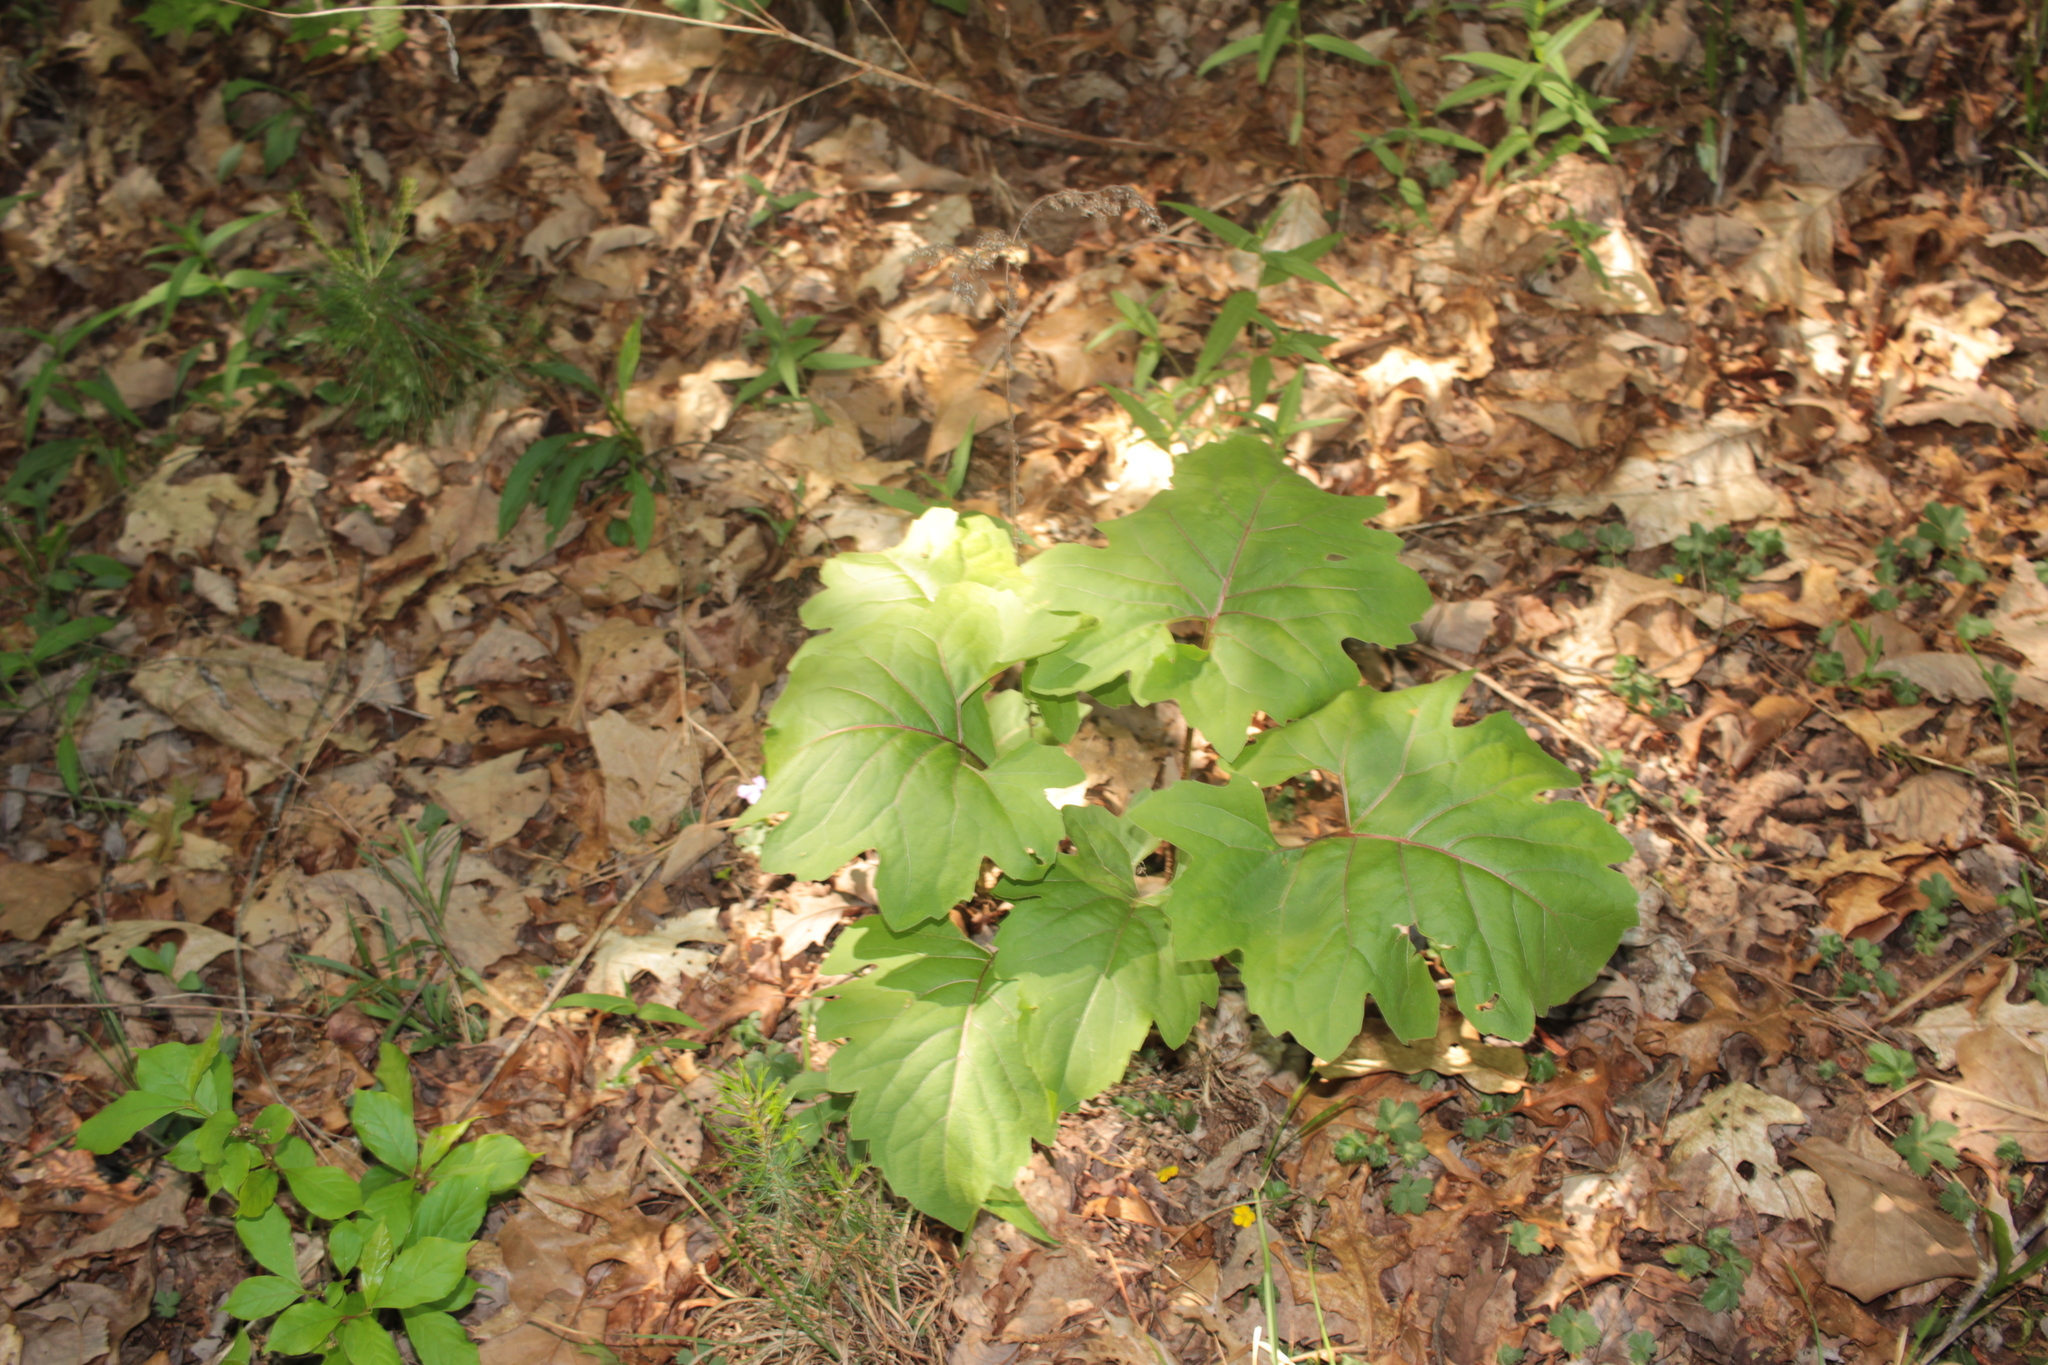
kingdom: Plantae
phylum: Tracheophyta
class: Magnoliopsida
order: Asterales
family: Asteraceae
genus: Silphium
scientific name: Silphium compositum
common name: Lesser basal-leaf rosinweed
